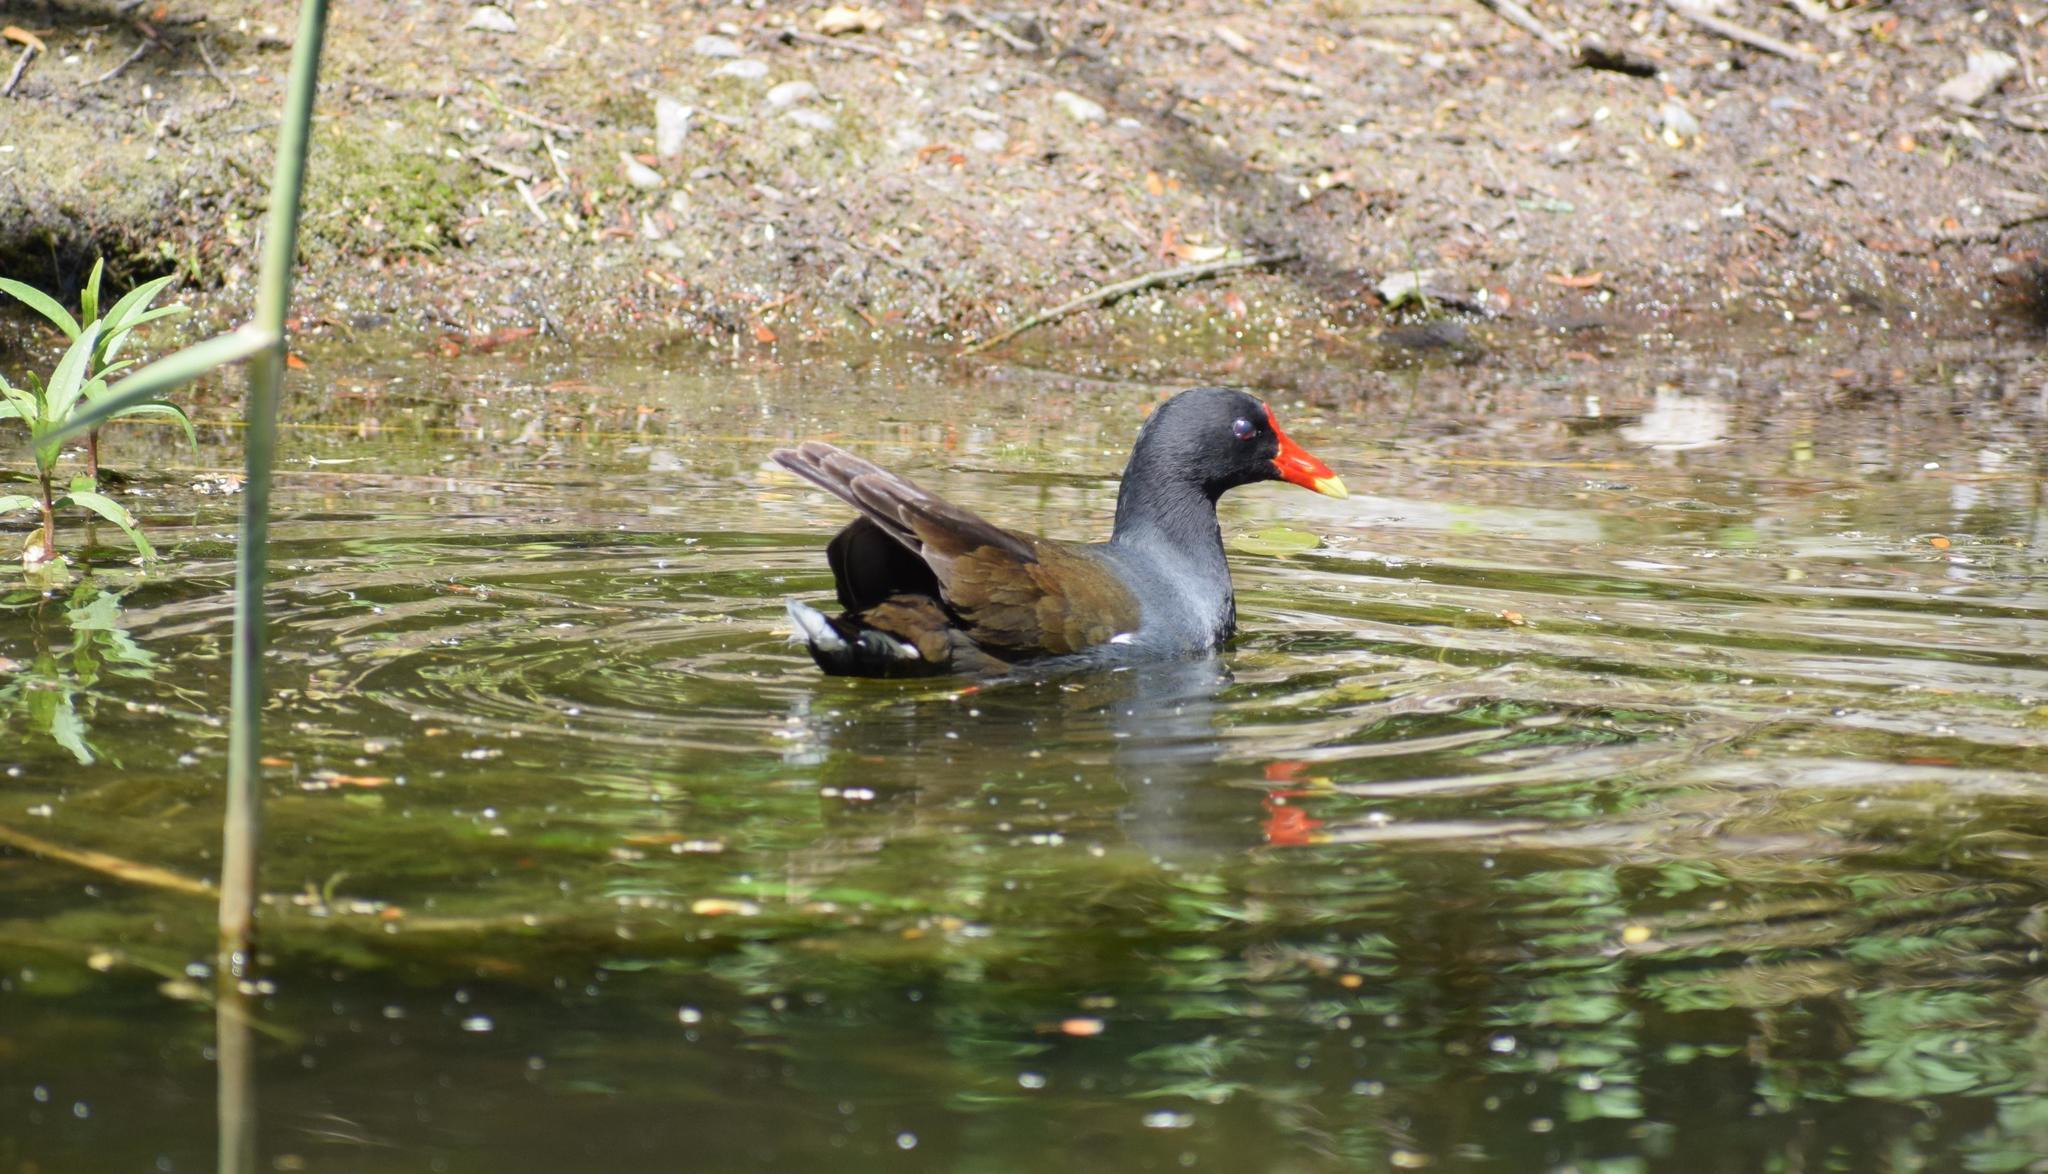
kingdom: Animalia
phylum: Chordata
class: Aves
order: Gruiformes
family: Rallidae
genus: Gallinula
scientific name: Gallinula chloropus
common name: Common moorhen
